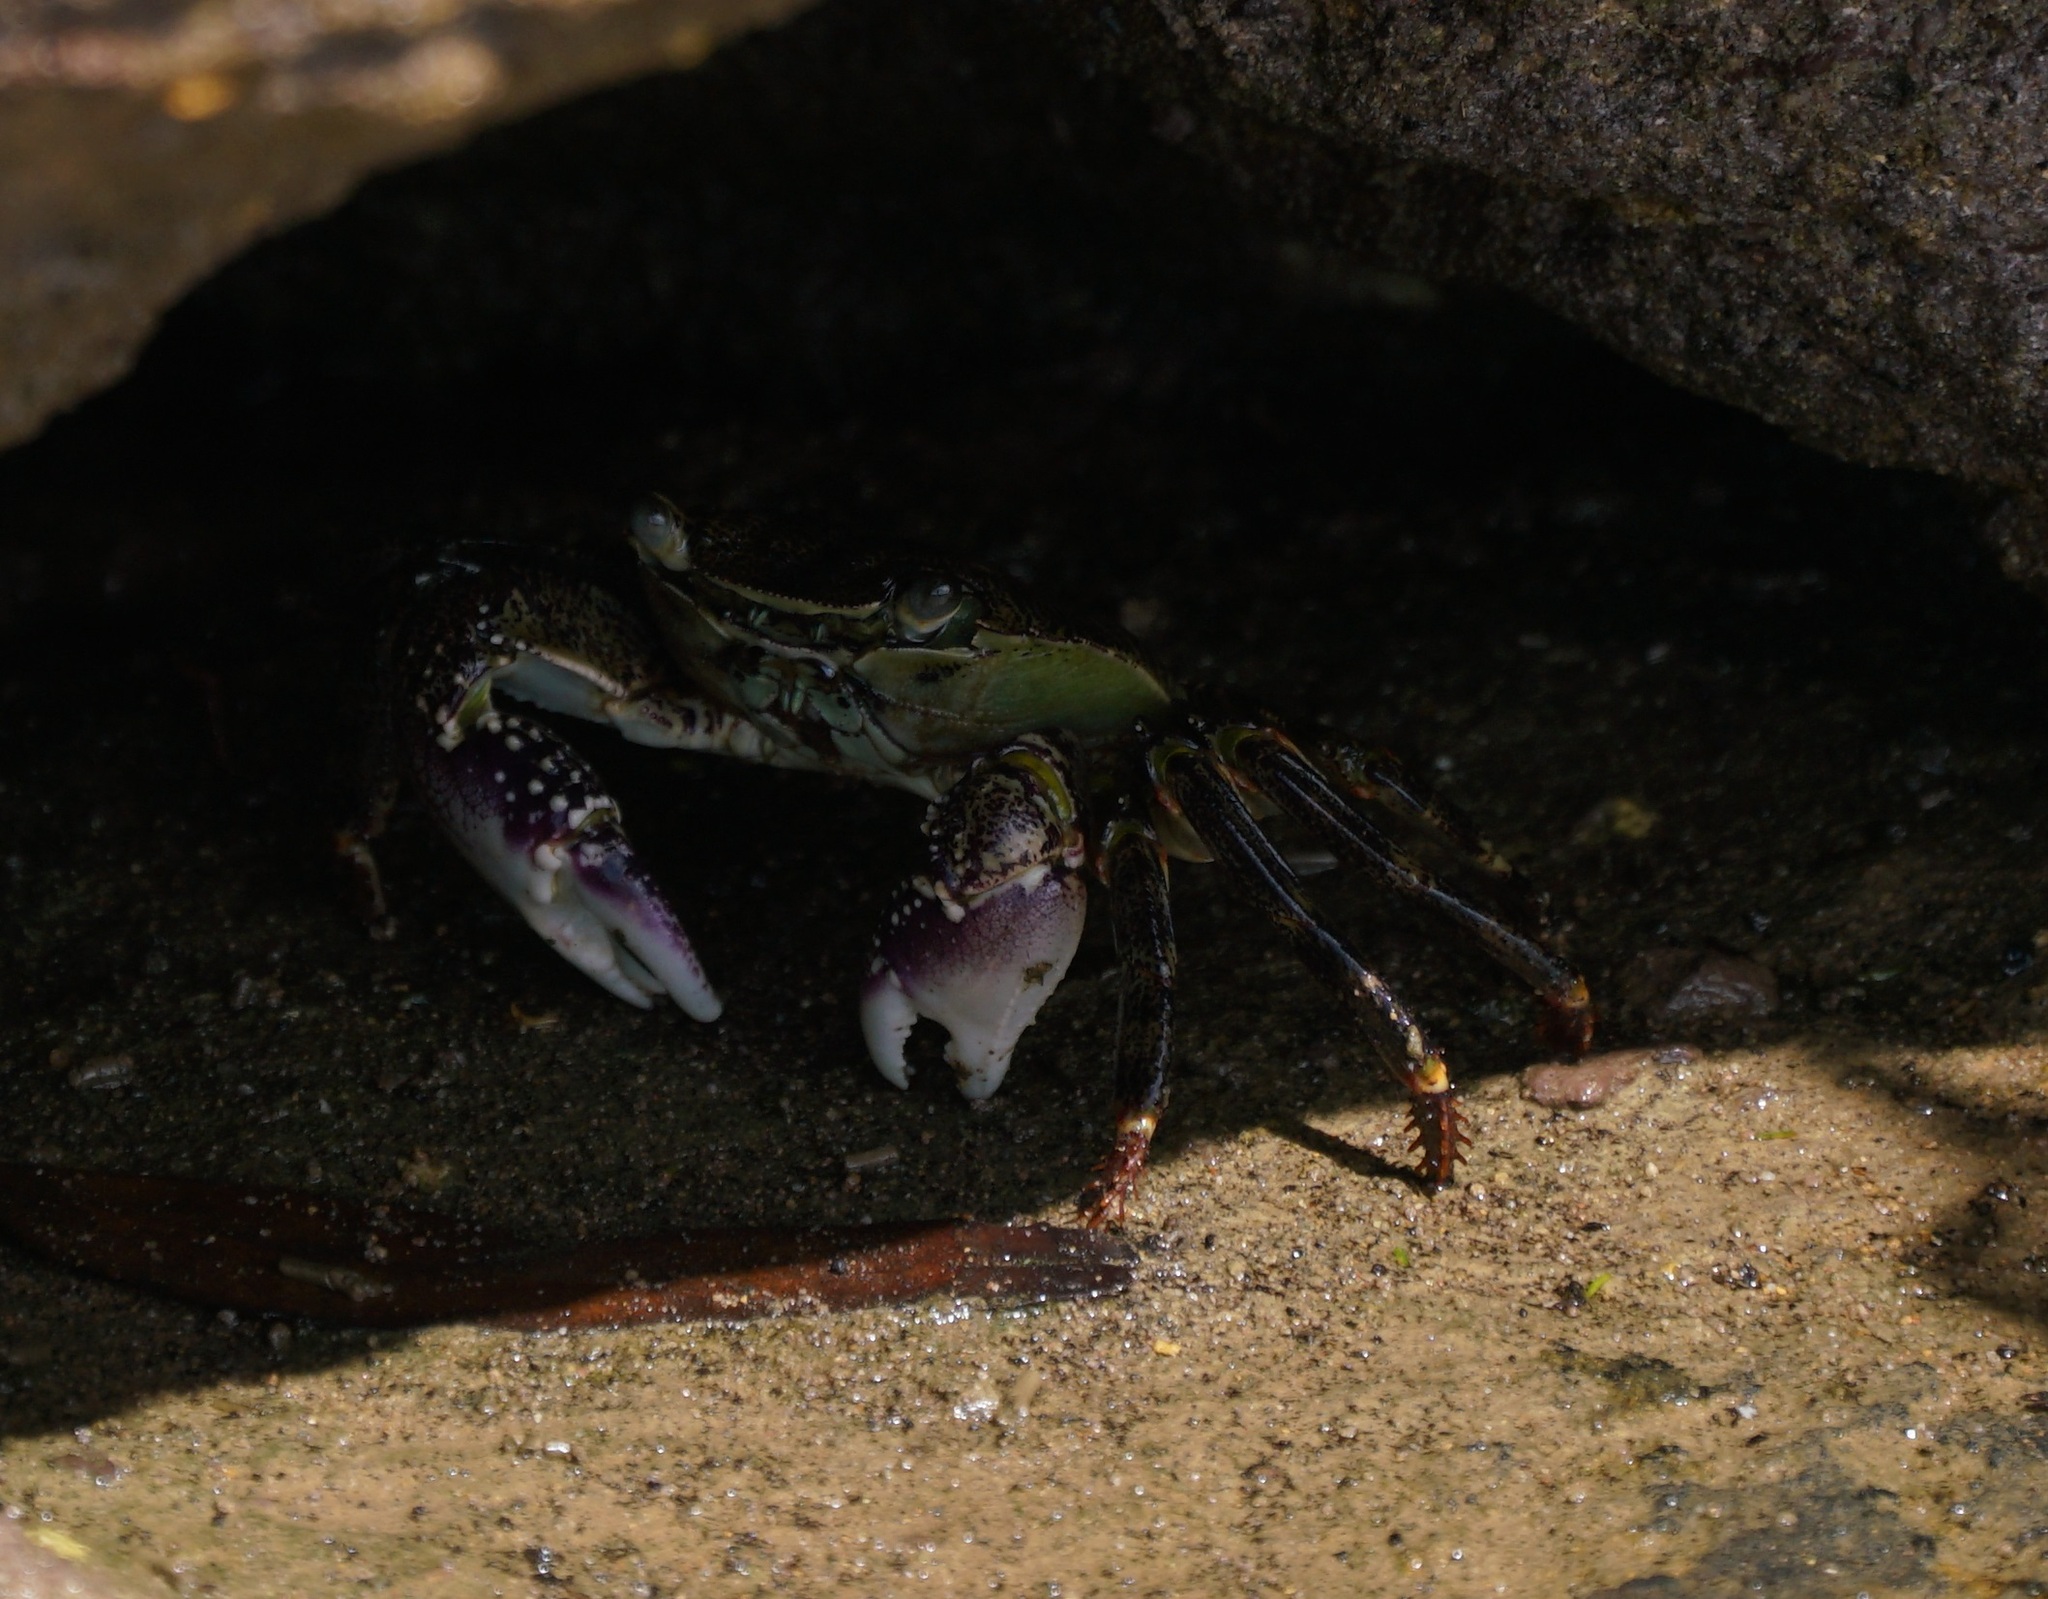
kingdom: Animalia
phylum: Arthropoda
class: Malacostraca
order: Decapoda
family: Grapsidae
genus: Leptograpsus
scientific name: Leptograpsus variegatus
